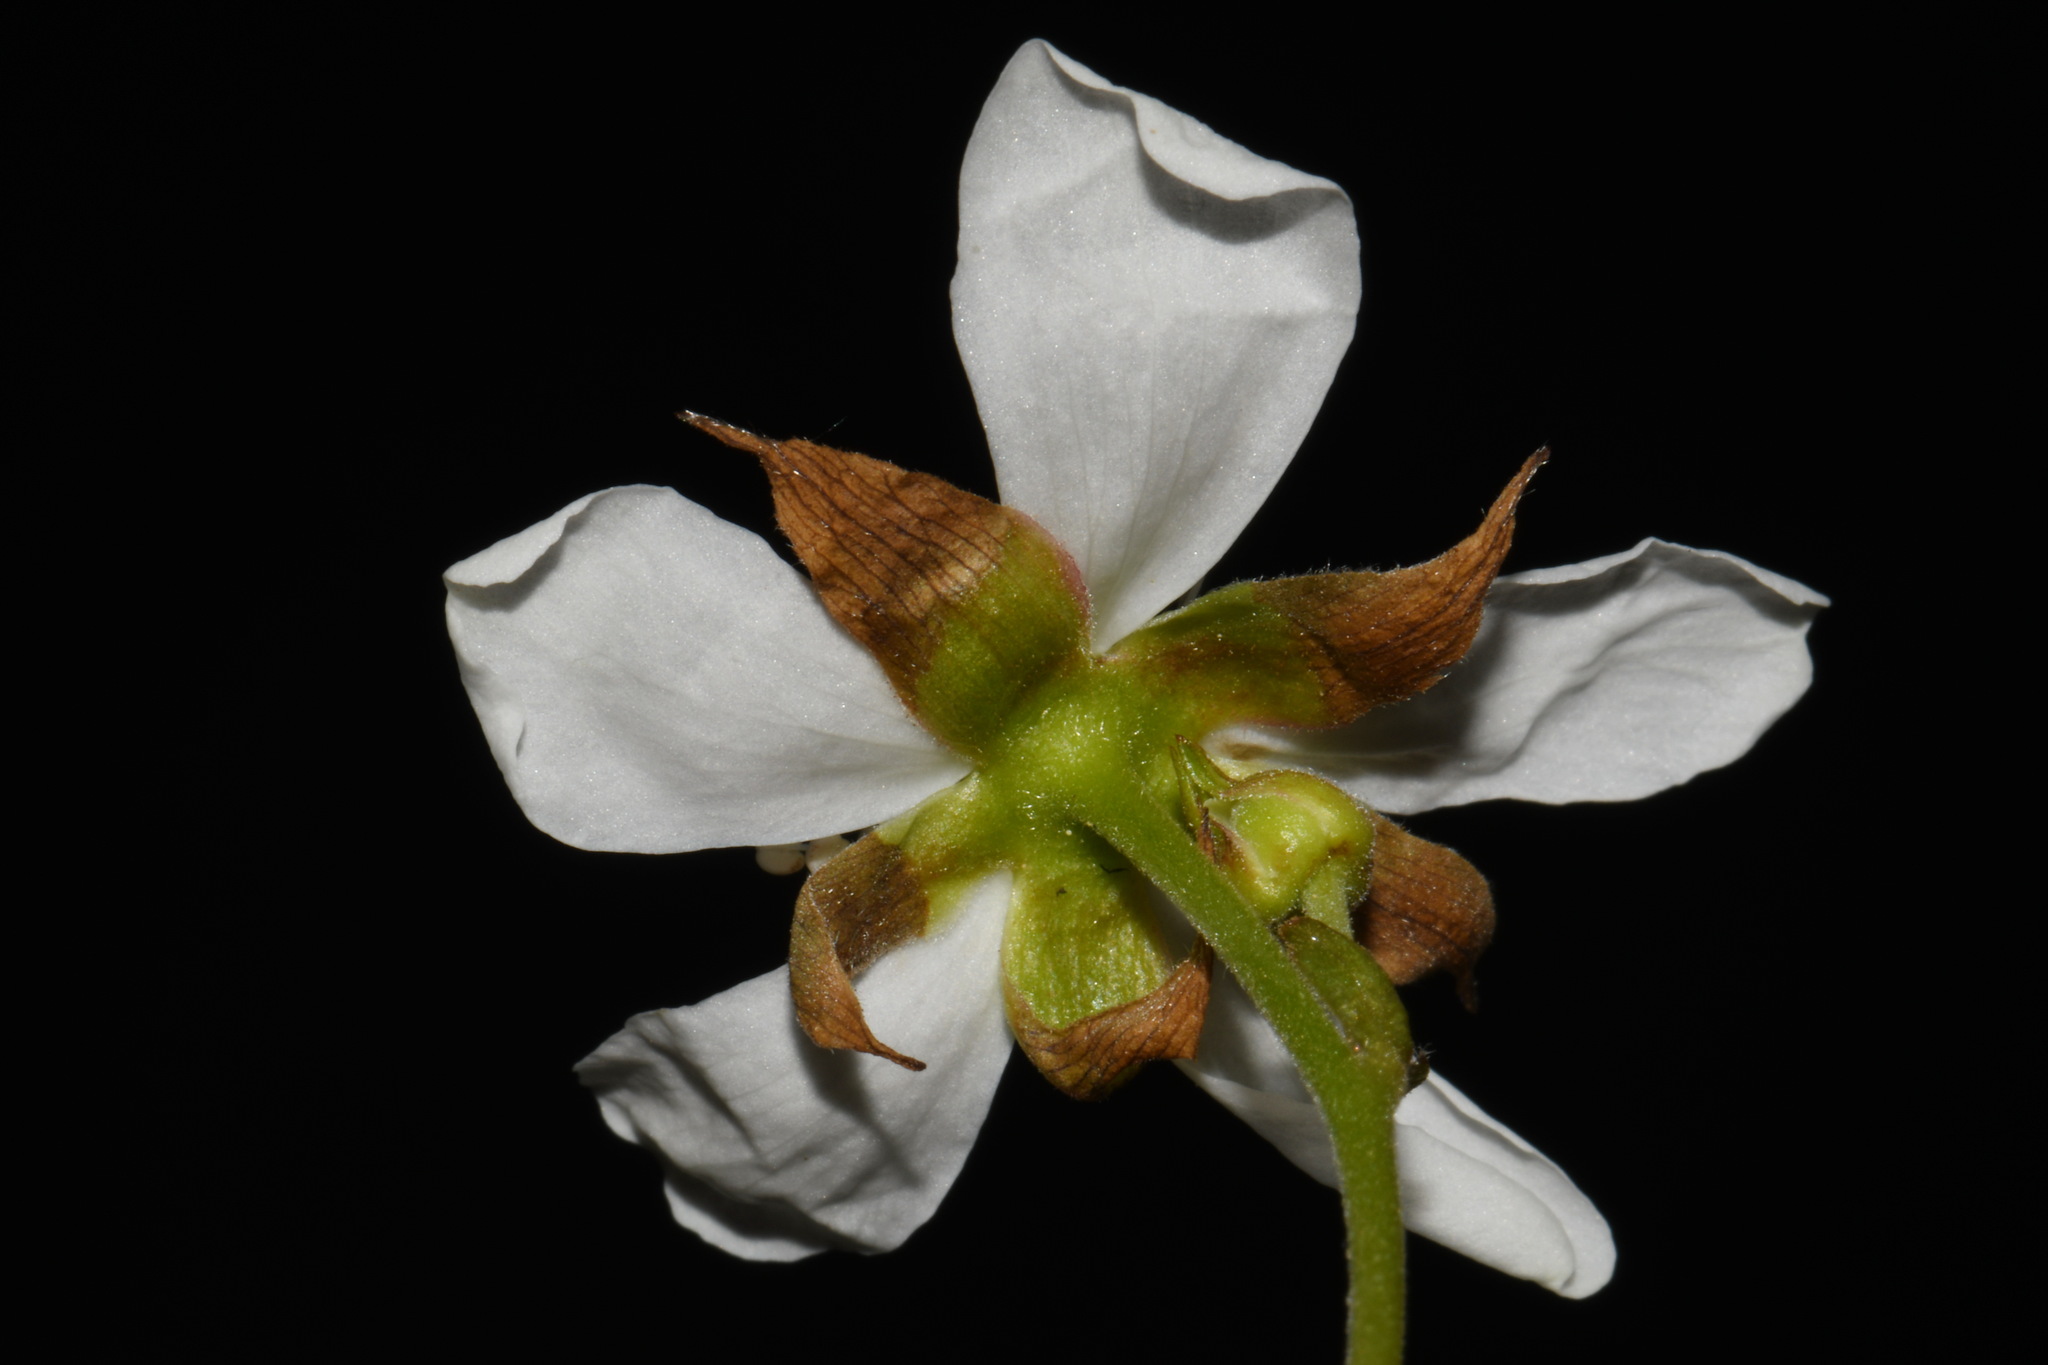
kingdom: Plantae
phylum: Tracheophyta
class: Magnoliopsida
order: Rosales
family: Rosaceae
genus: Rubus
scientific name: Rubus lasiococcus
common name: Dwarf bramble
